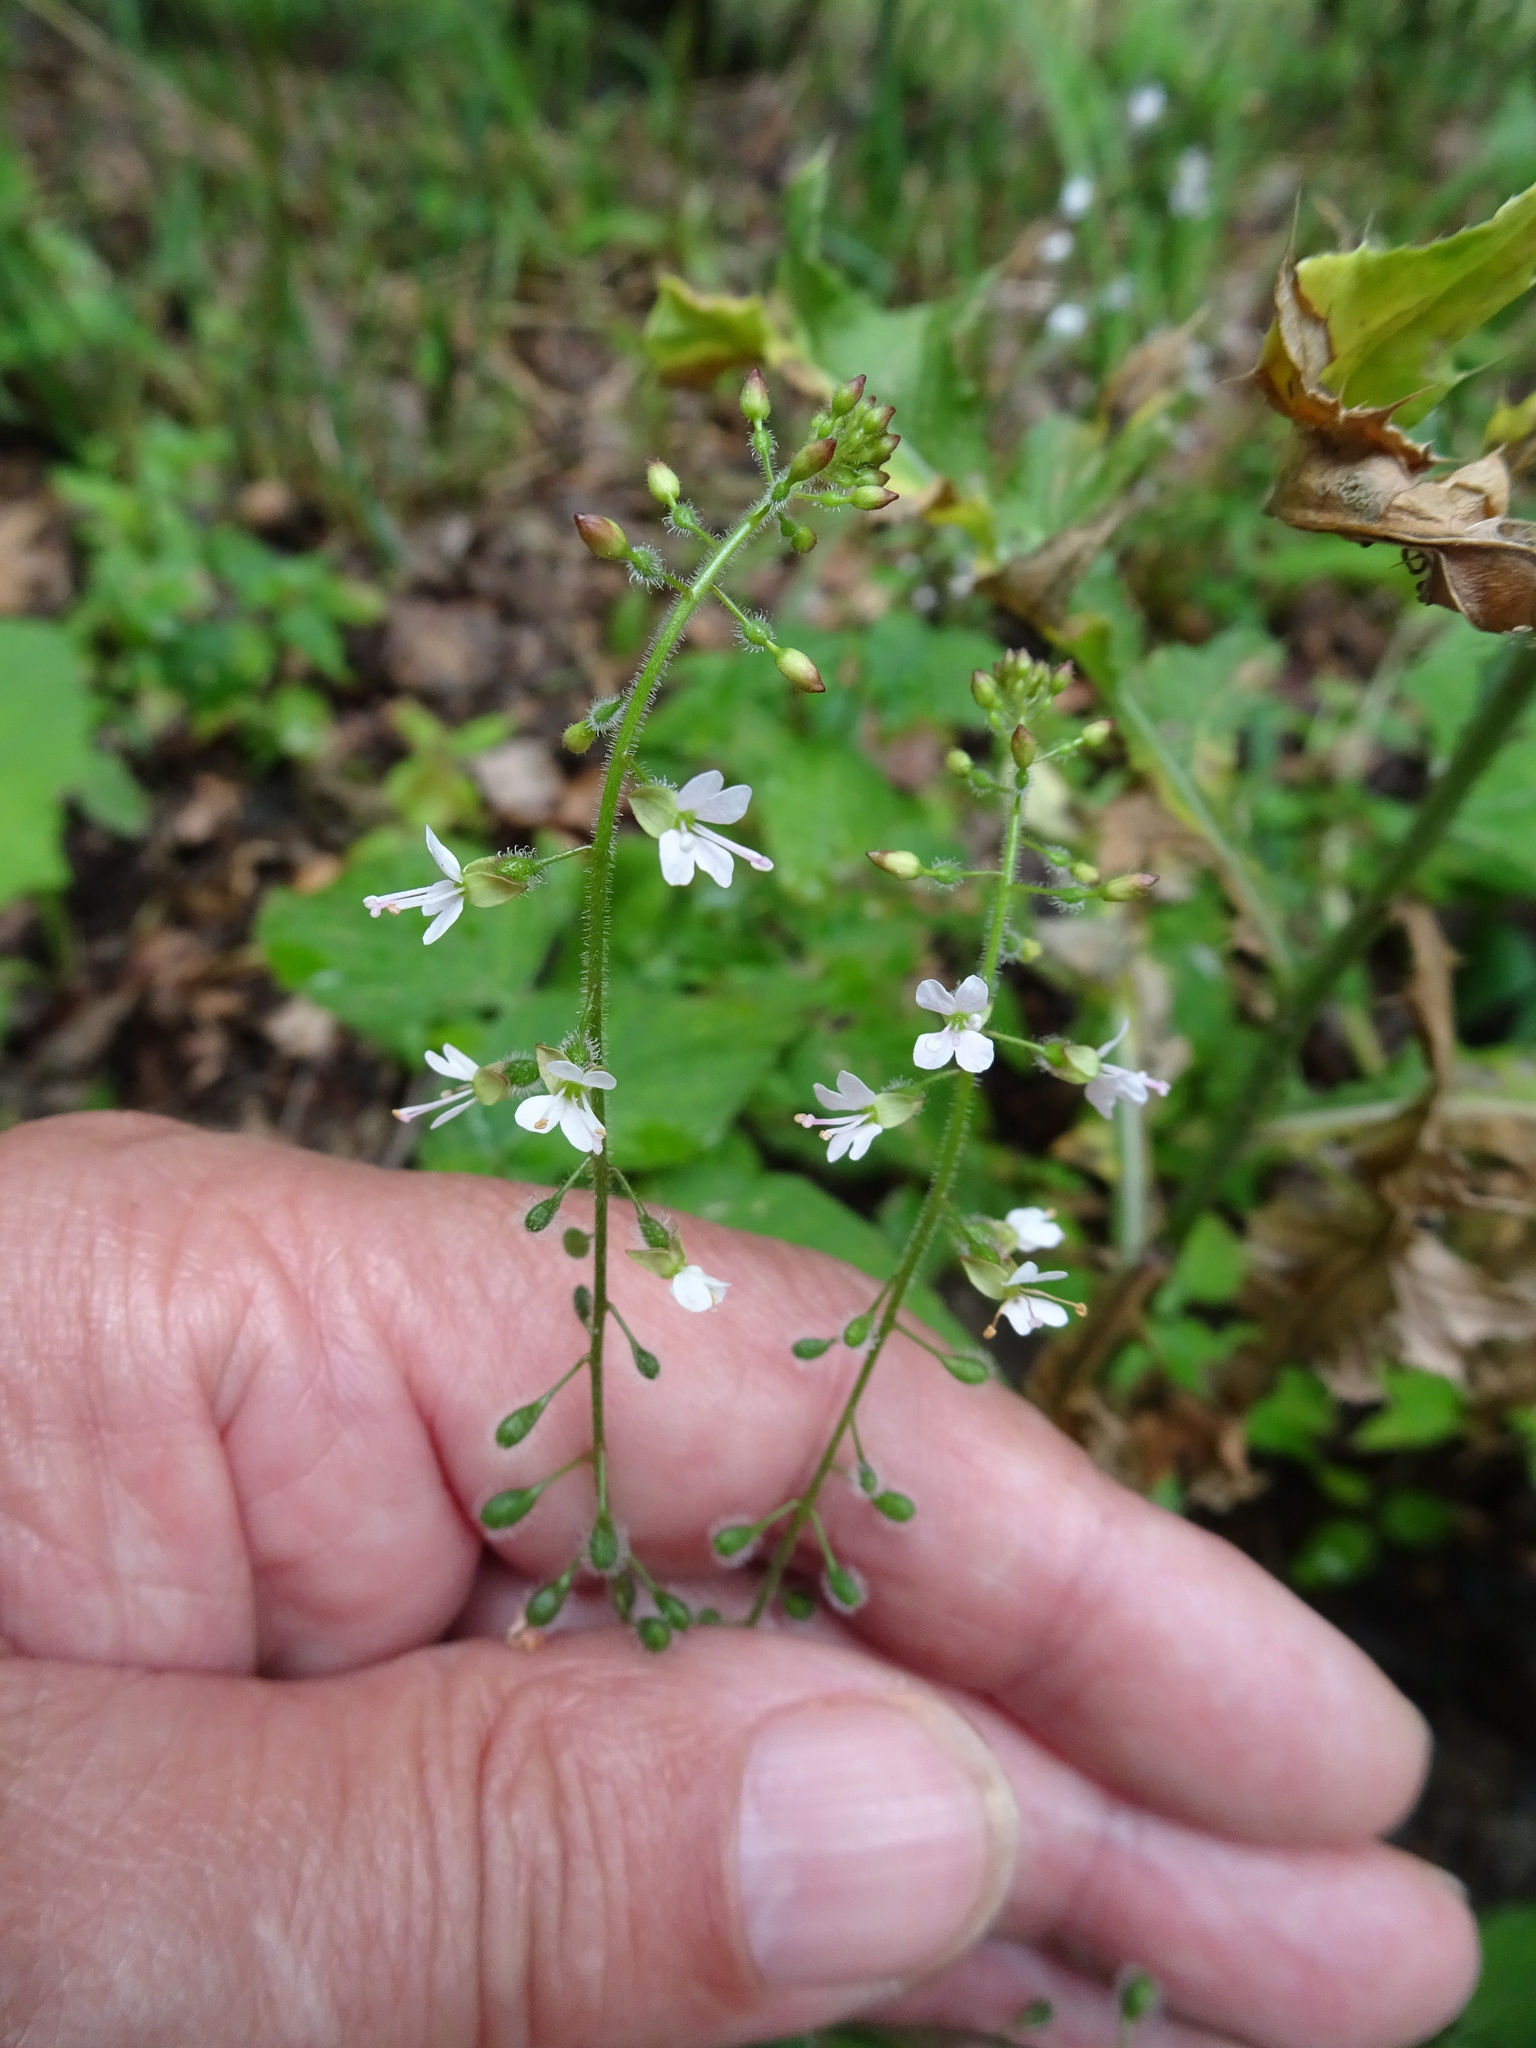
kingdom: Plantae
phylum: Tracheophyta
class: Magnoliopsida
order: Myrtales
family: Onagraceae
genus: Circaea
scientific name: Circaea lutetiana
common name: Enchanter's-nightshade
